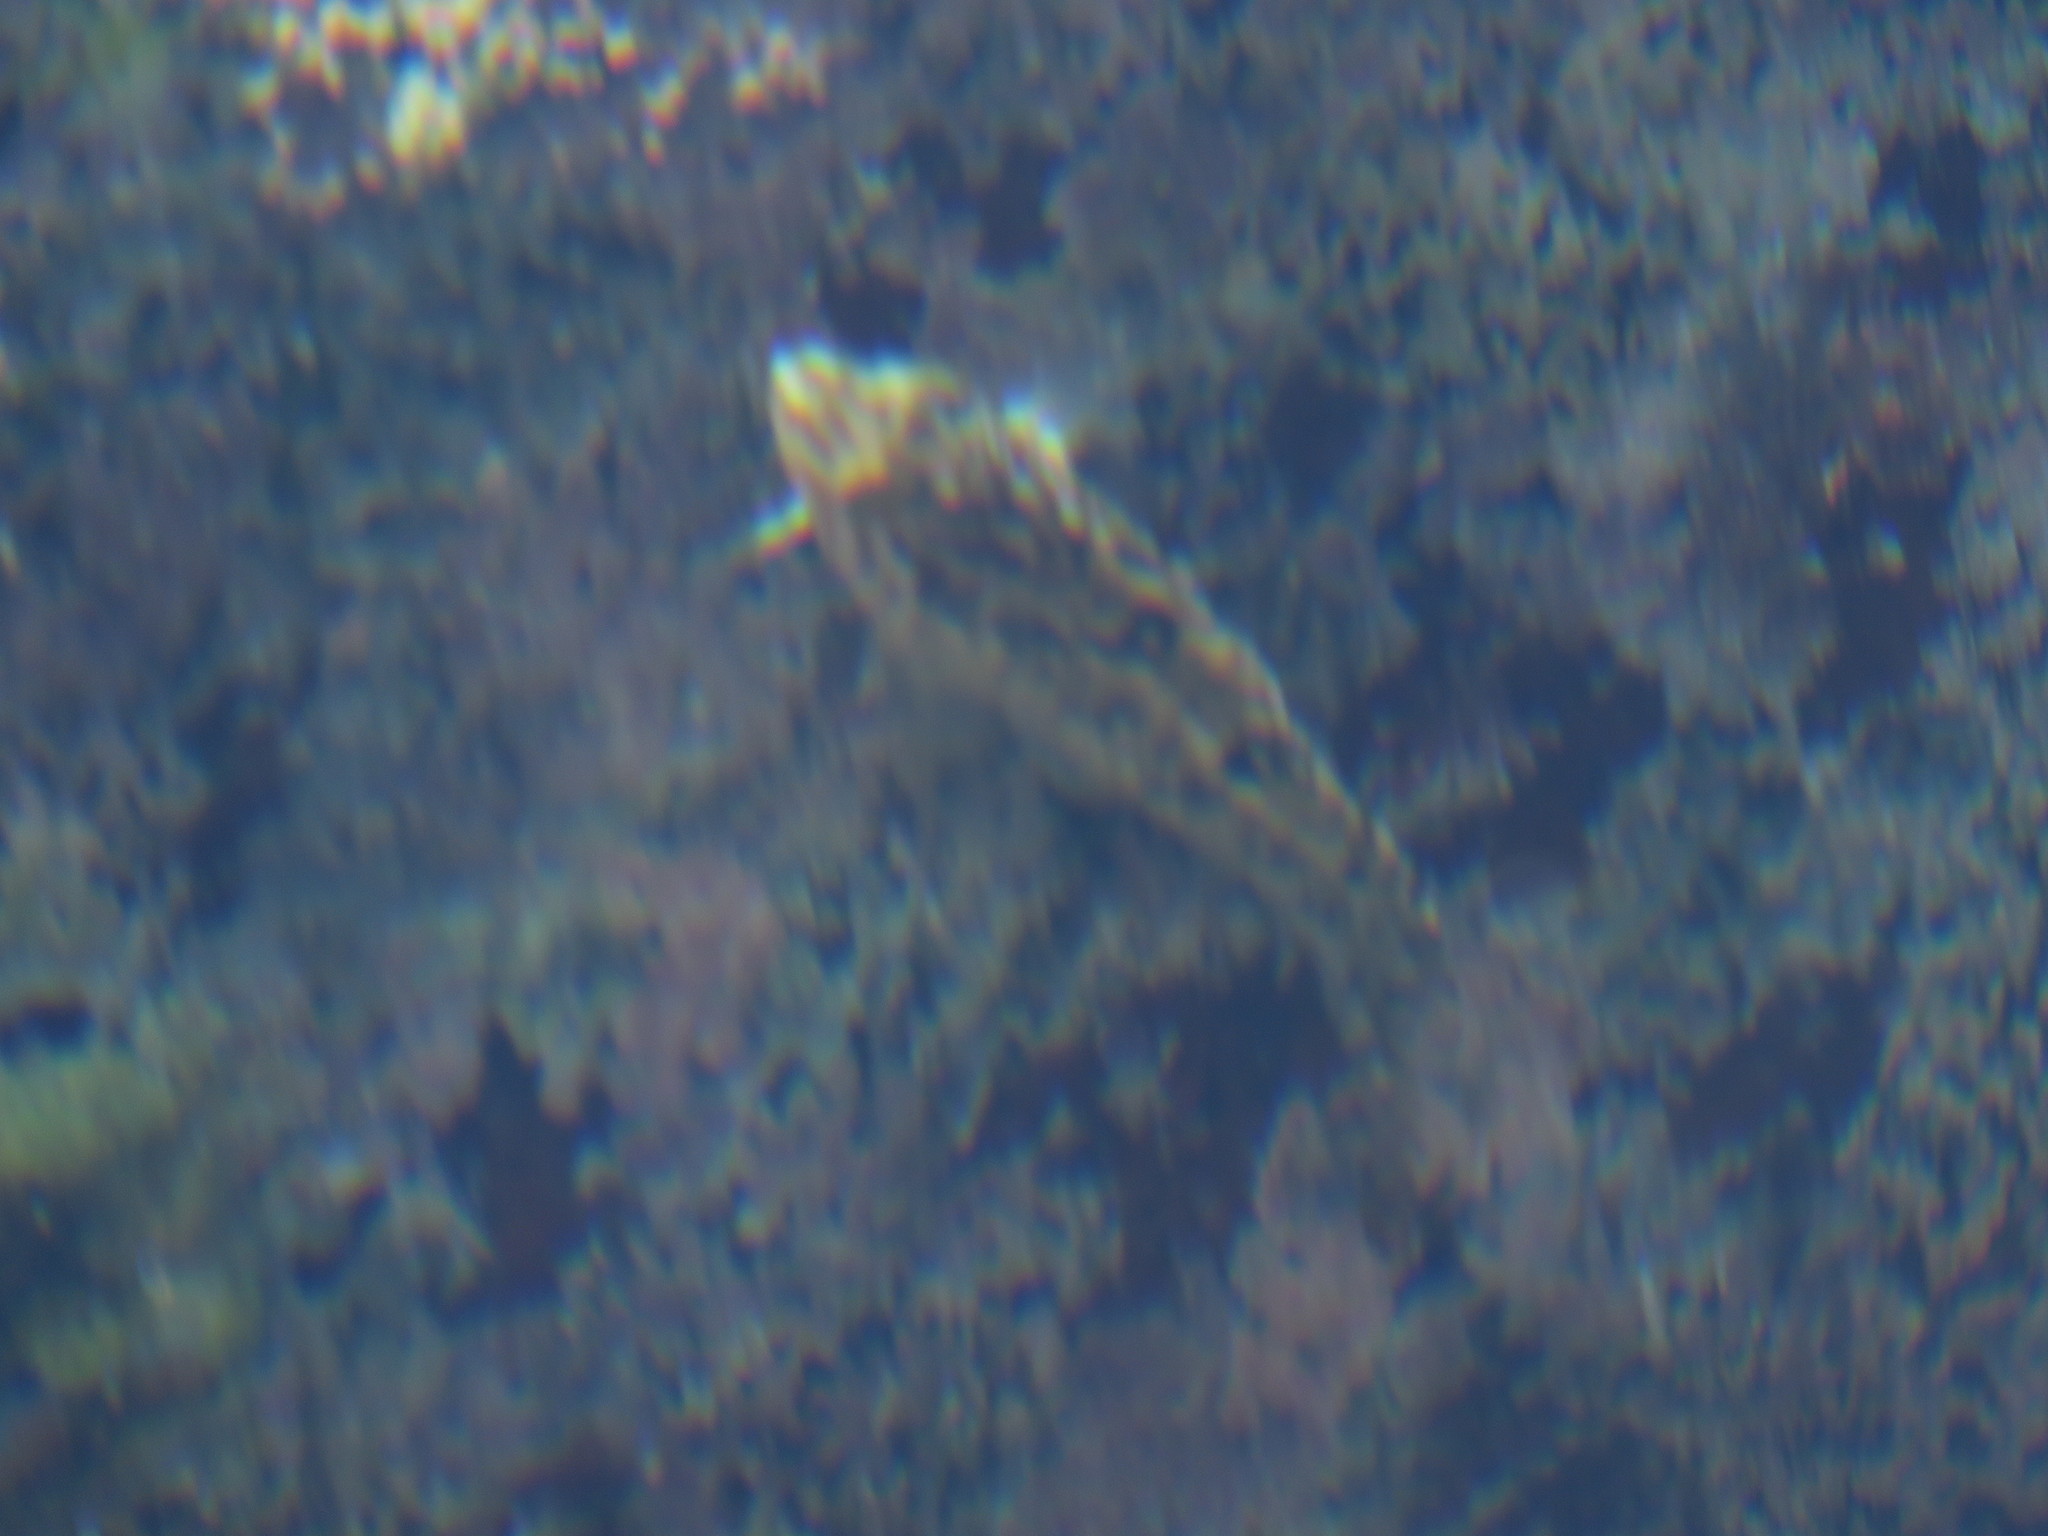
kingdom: Animalia
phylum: Chordata
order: Perciformes
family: Clinidae
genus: Clinus
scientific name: Clinus superciliosus
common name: Super klipfish
